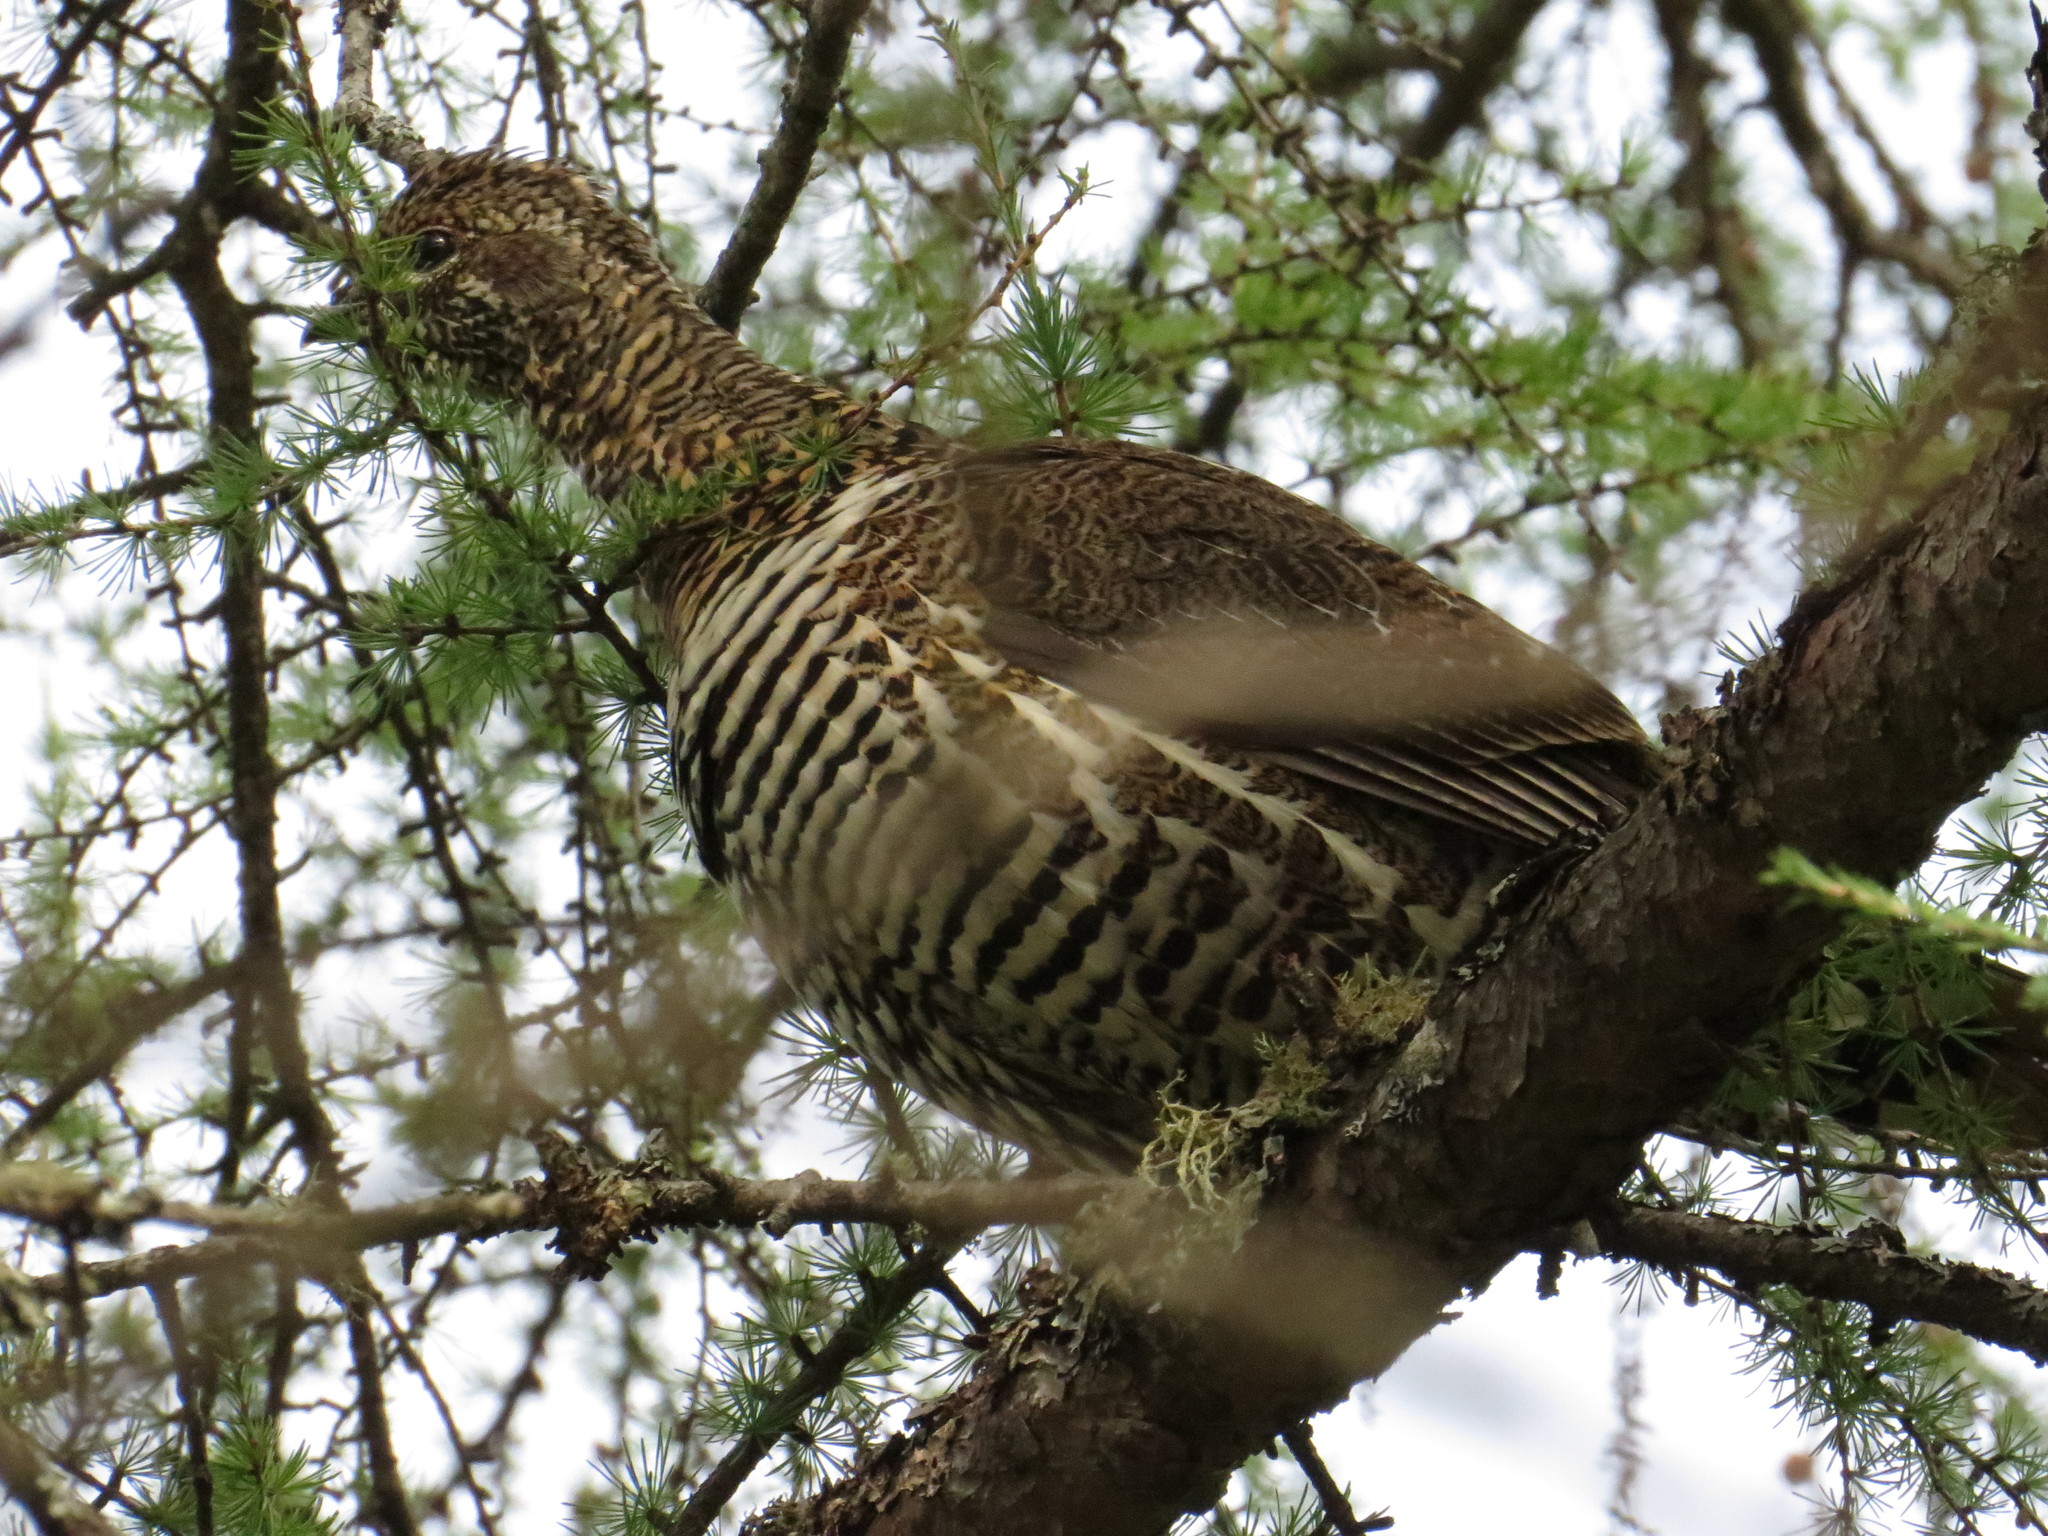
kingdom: Animalia
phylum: Chordata
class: Aves
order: Galliformes
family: Phasianidae
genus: Canachites
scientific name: Canachites canadensis
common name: Spruce grouse
